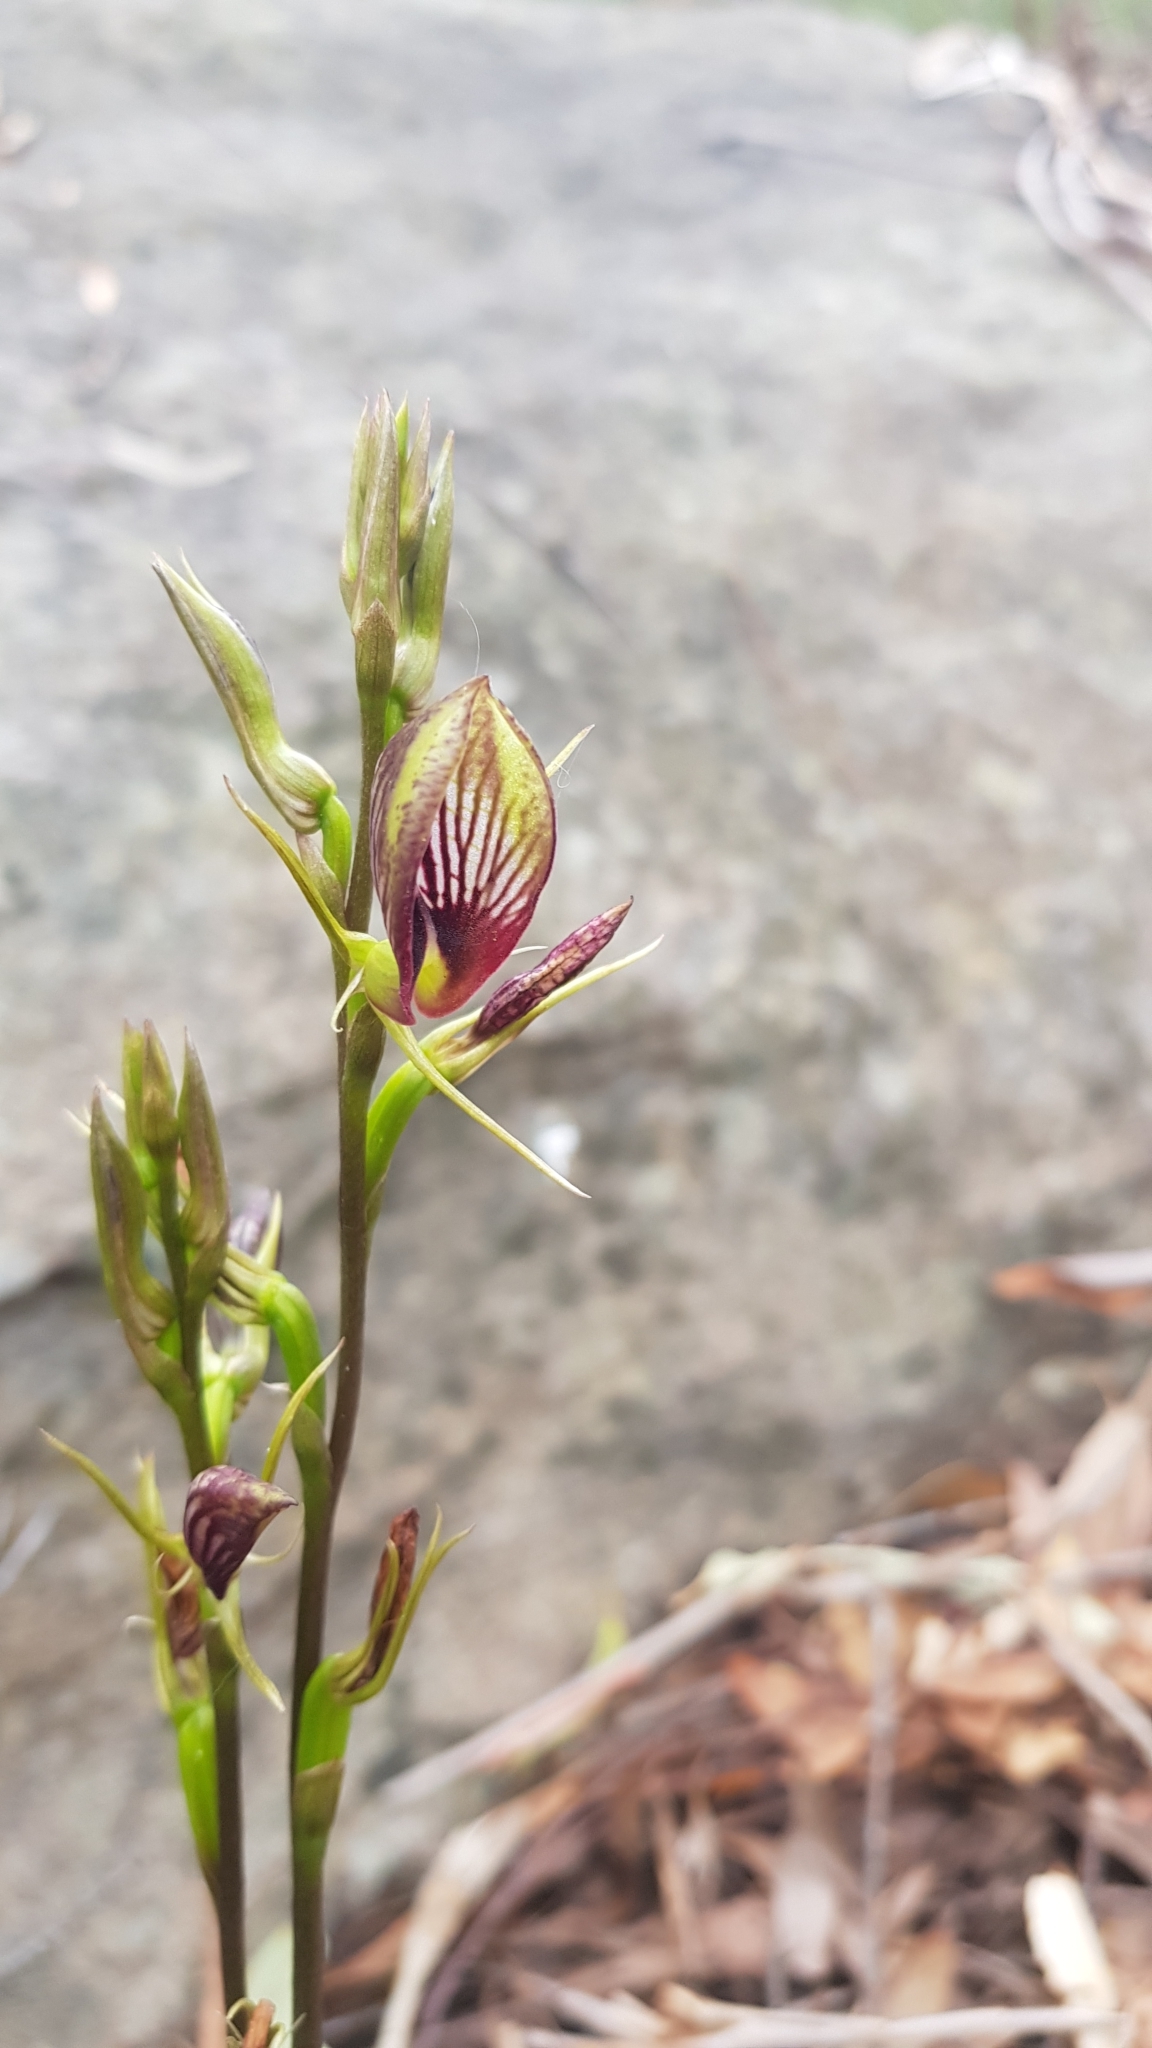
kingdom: Plantae
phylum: Tracheophyta
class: Liliopsida
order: Asparagales
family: Orchidaceae
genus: Cryptostylis
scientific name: Cryptostylis erecta
